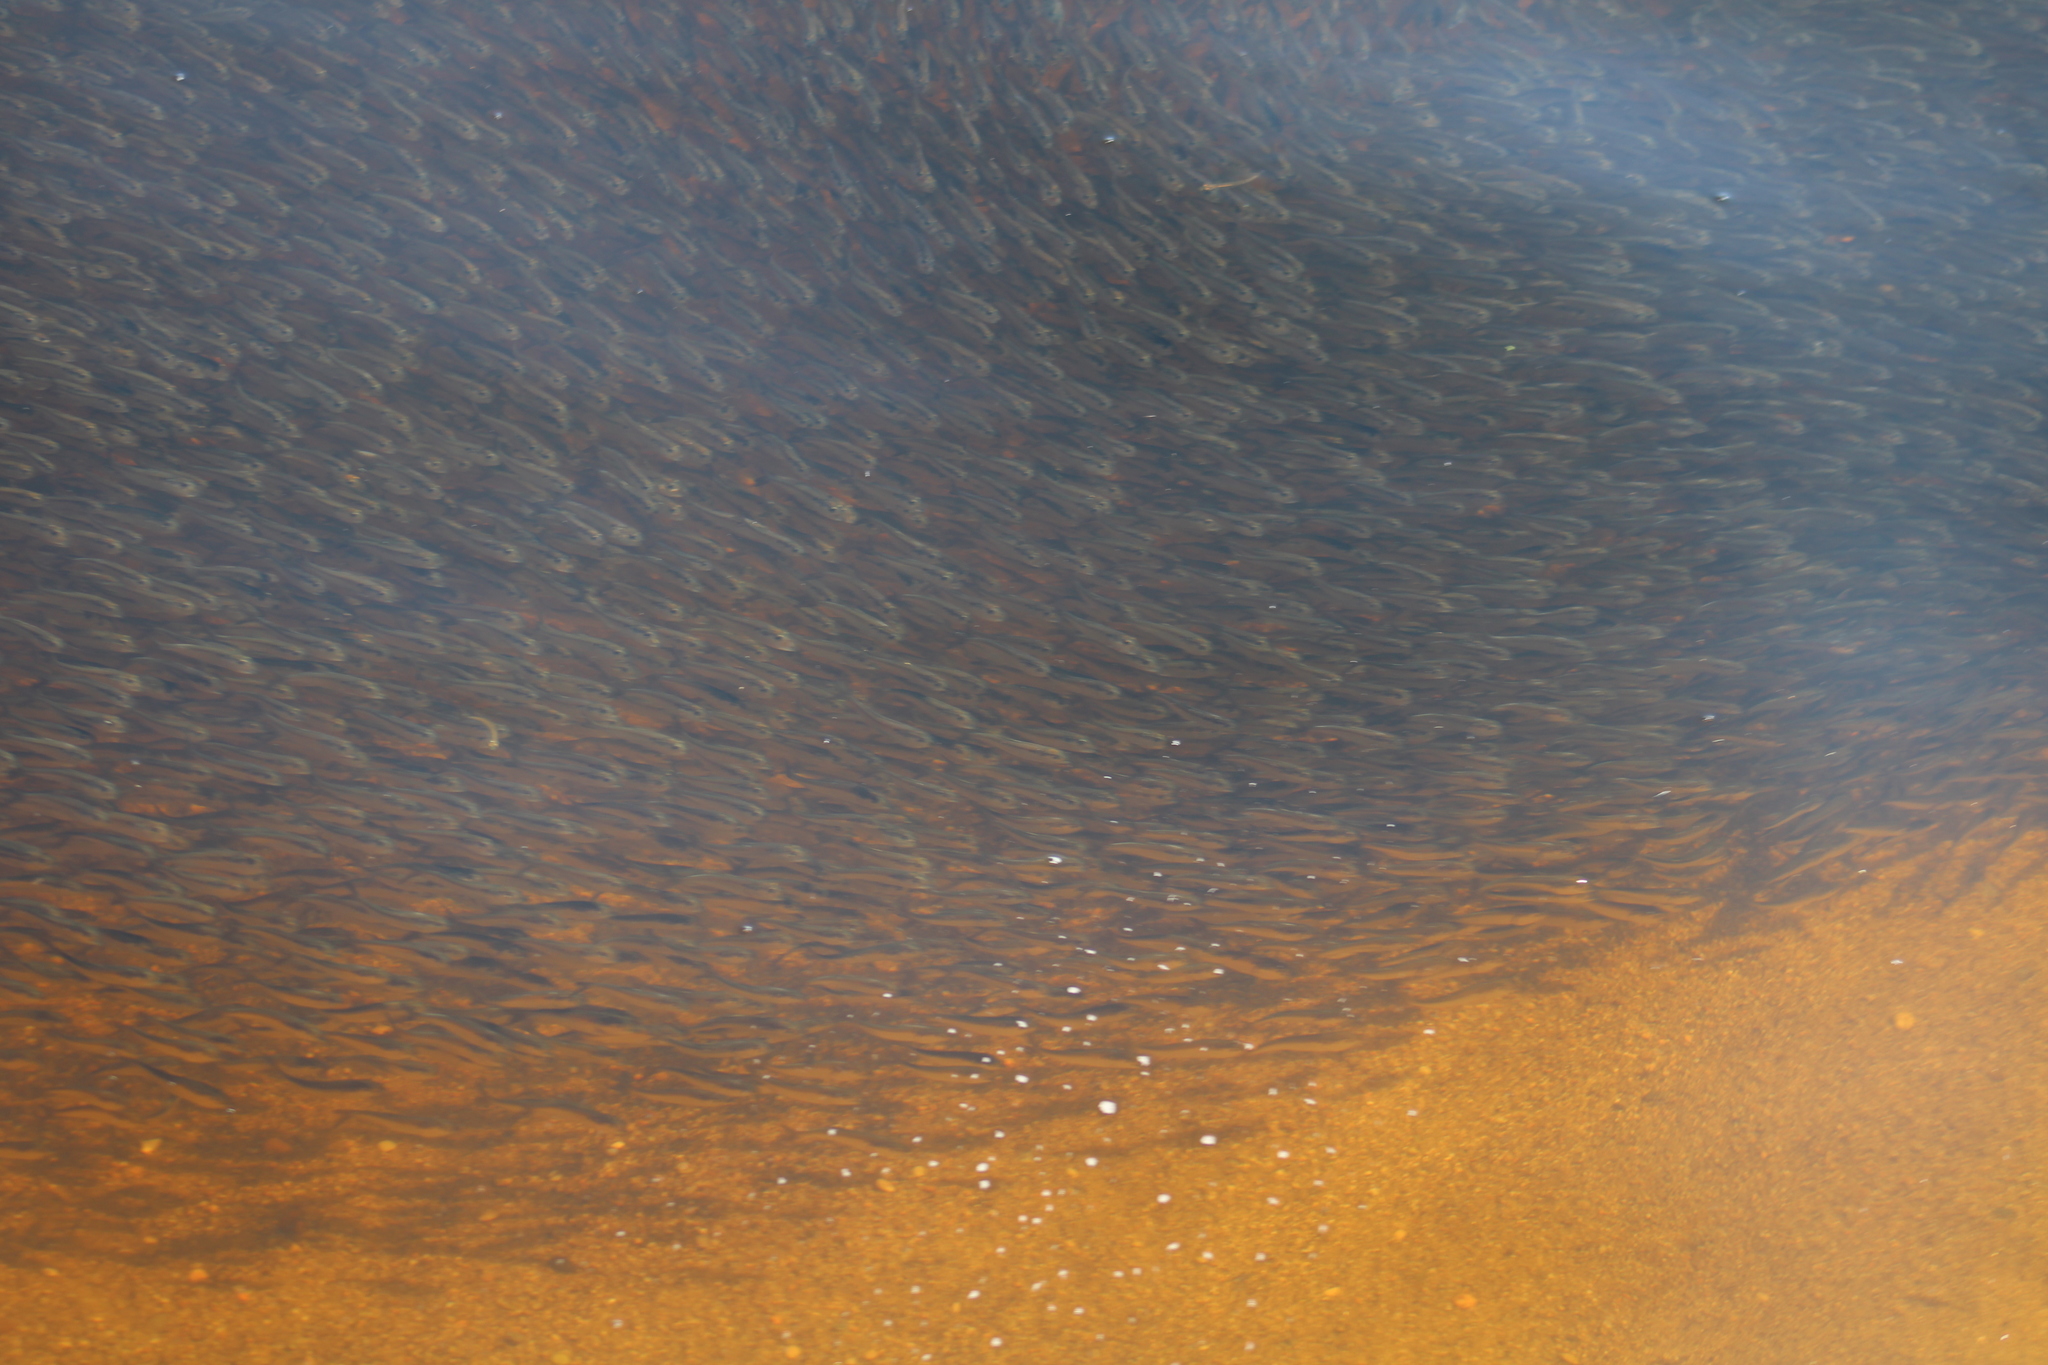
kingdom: Animalia
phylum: Chordata
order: Clupeiformes
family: Clupeidae
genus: Brevoortia
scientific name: Brevoortia tyrannus
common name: Atlantic menhaden
